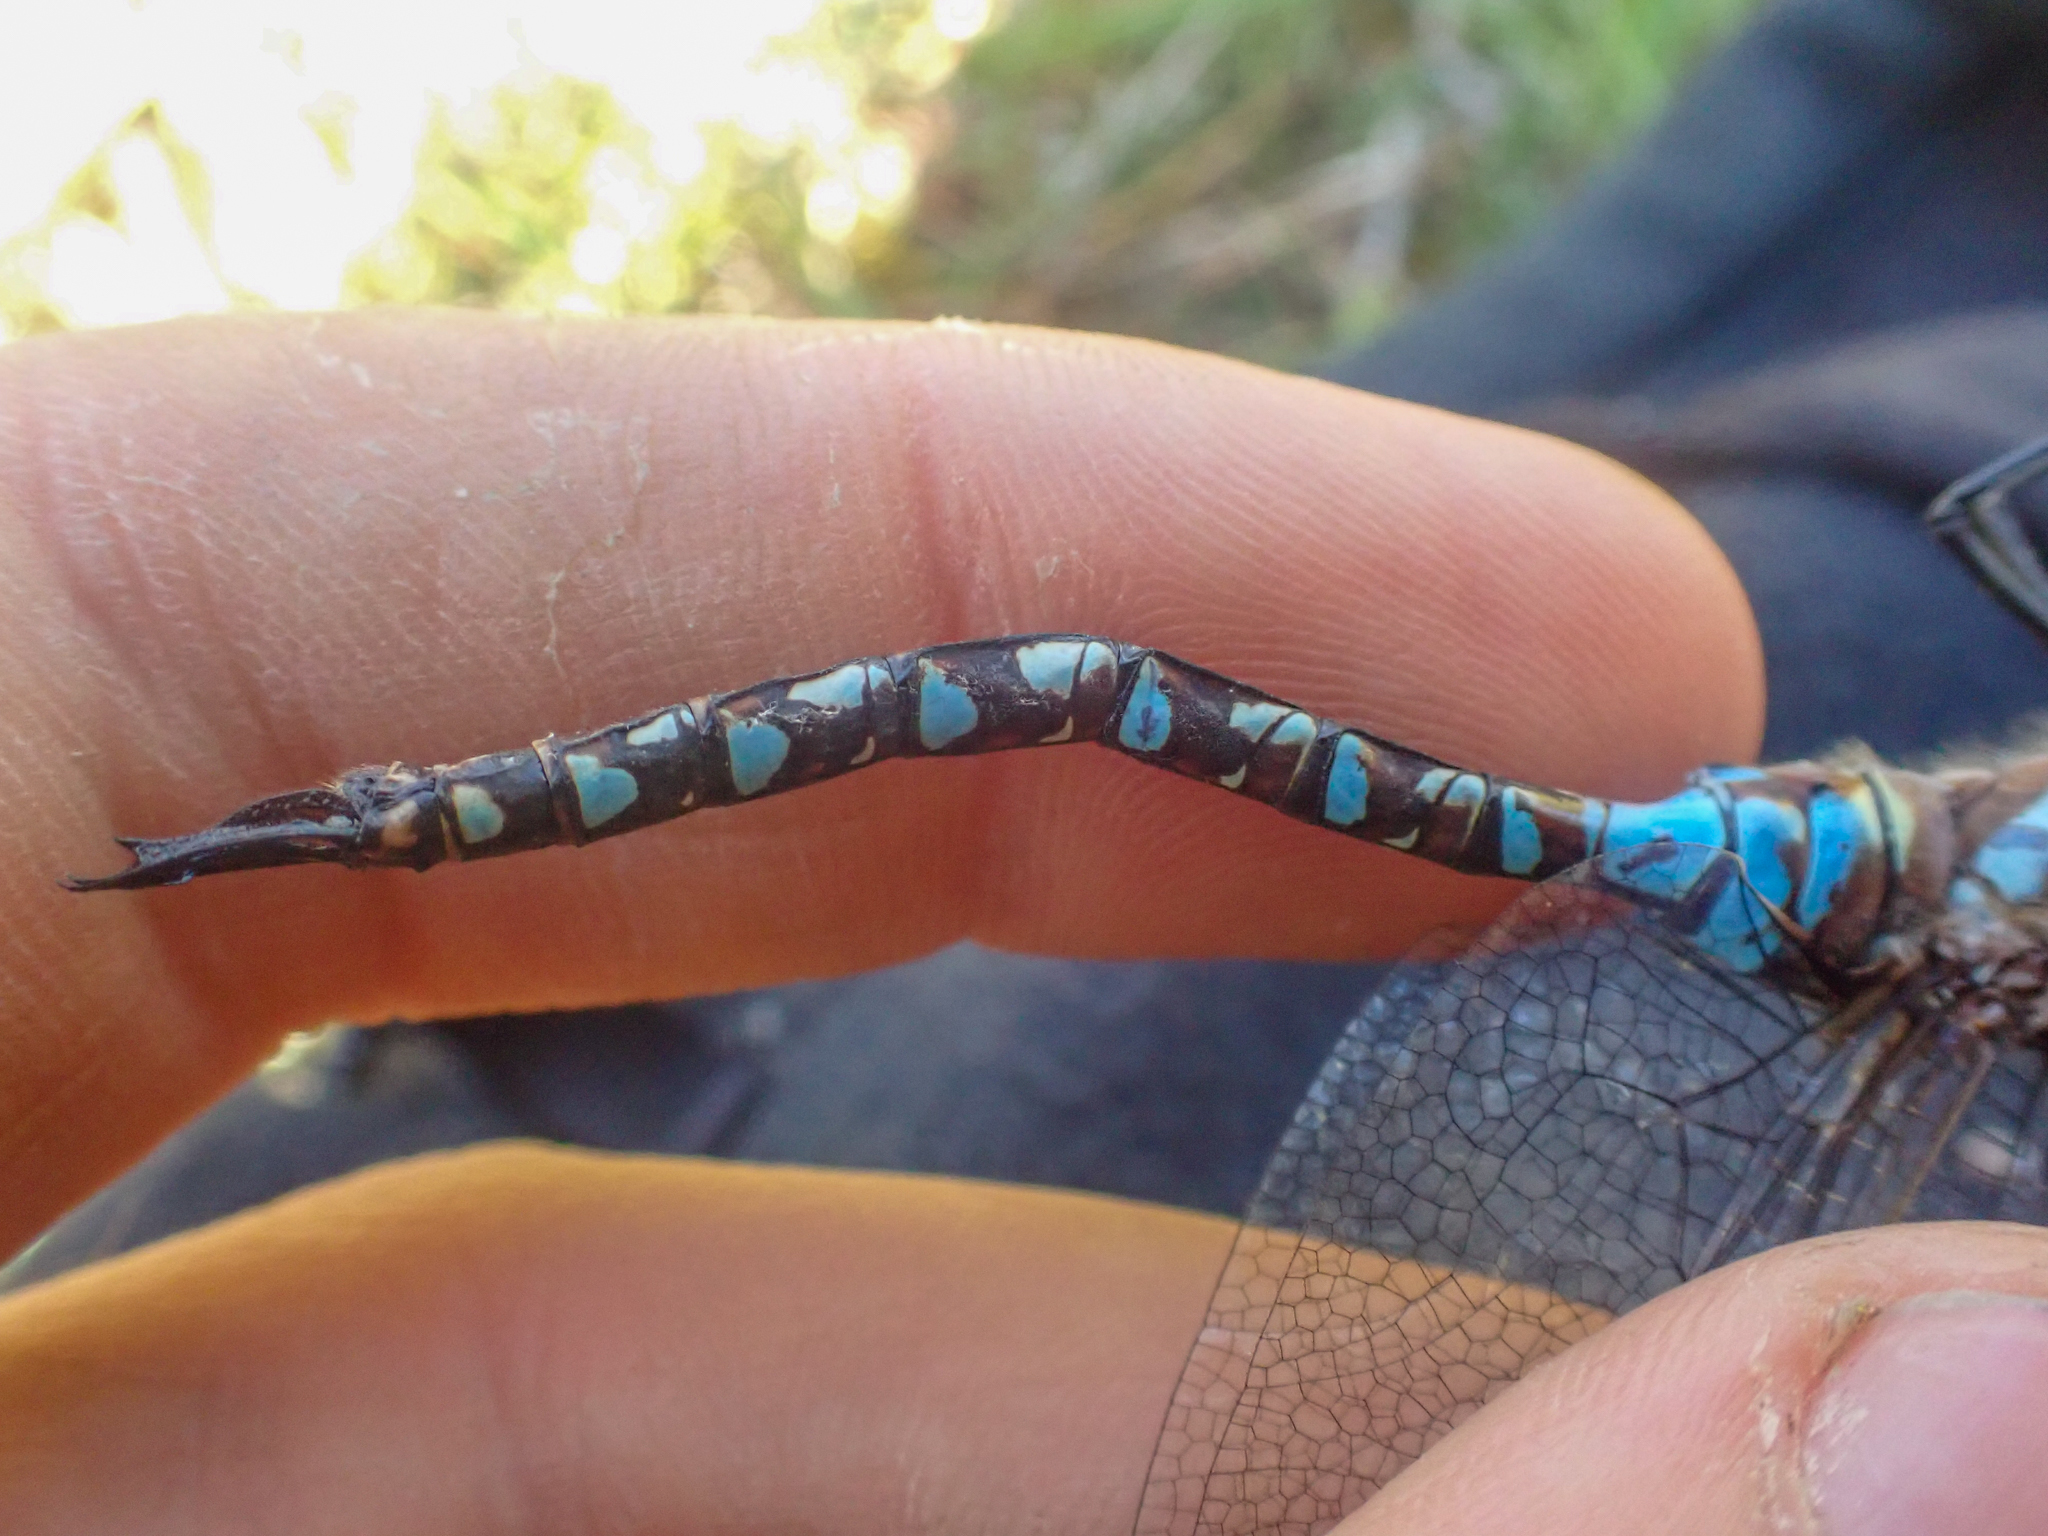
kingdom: Animalia
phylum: Arthropoda
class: Insecta
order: Odonata
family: Aeshnidae
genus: Rhionaeschna
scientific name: Rhionaeschna multicolor
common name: Blue-eyed darner
